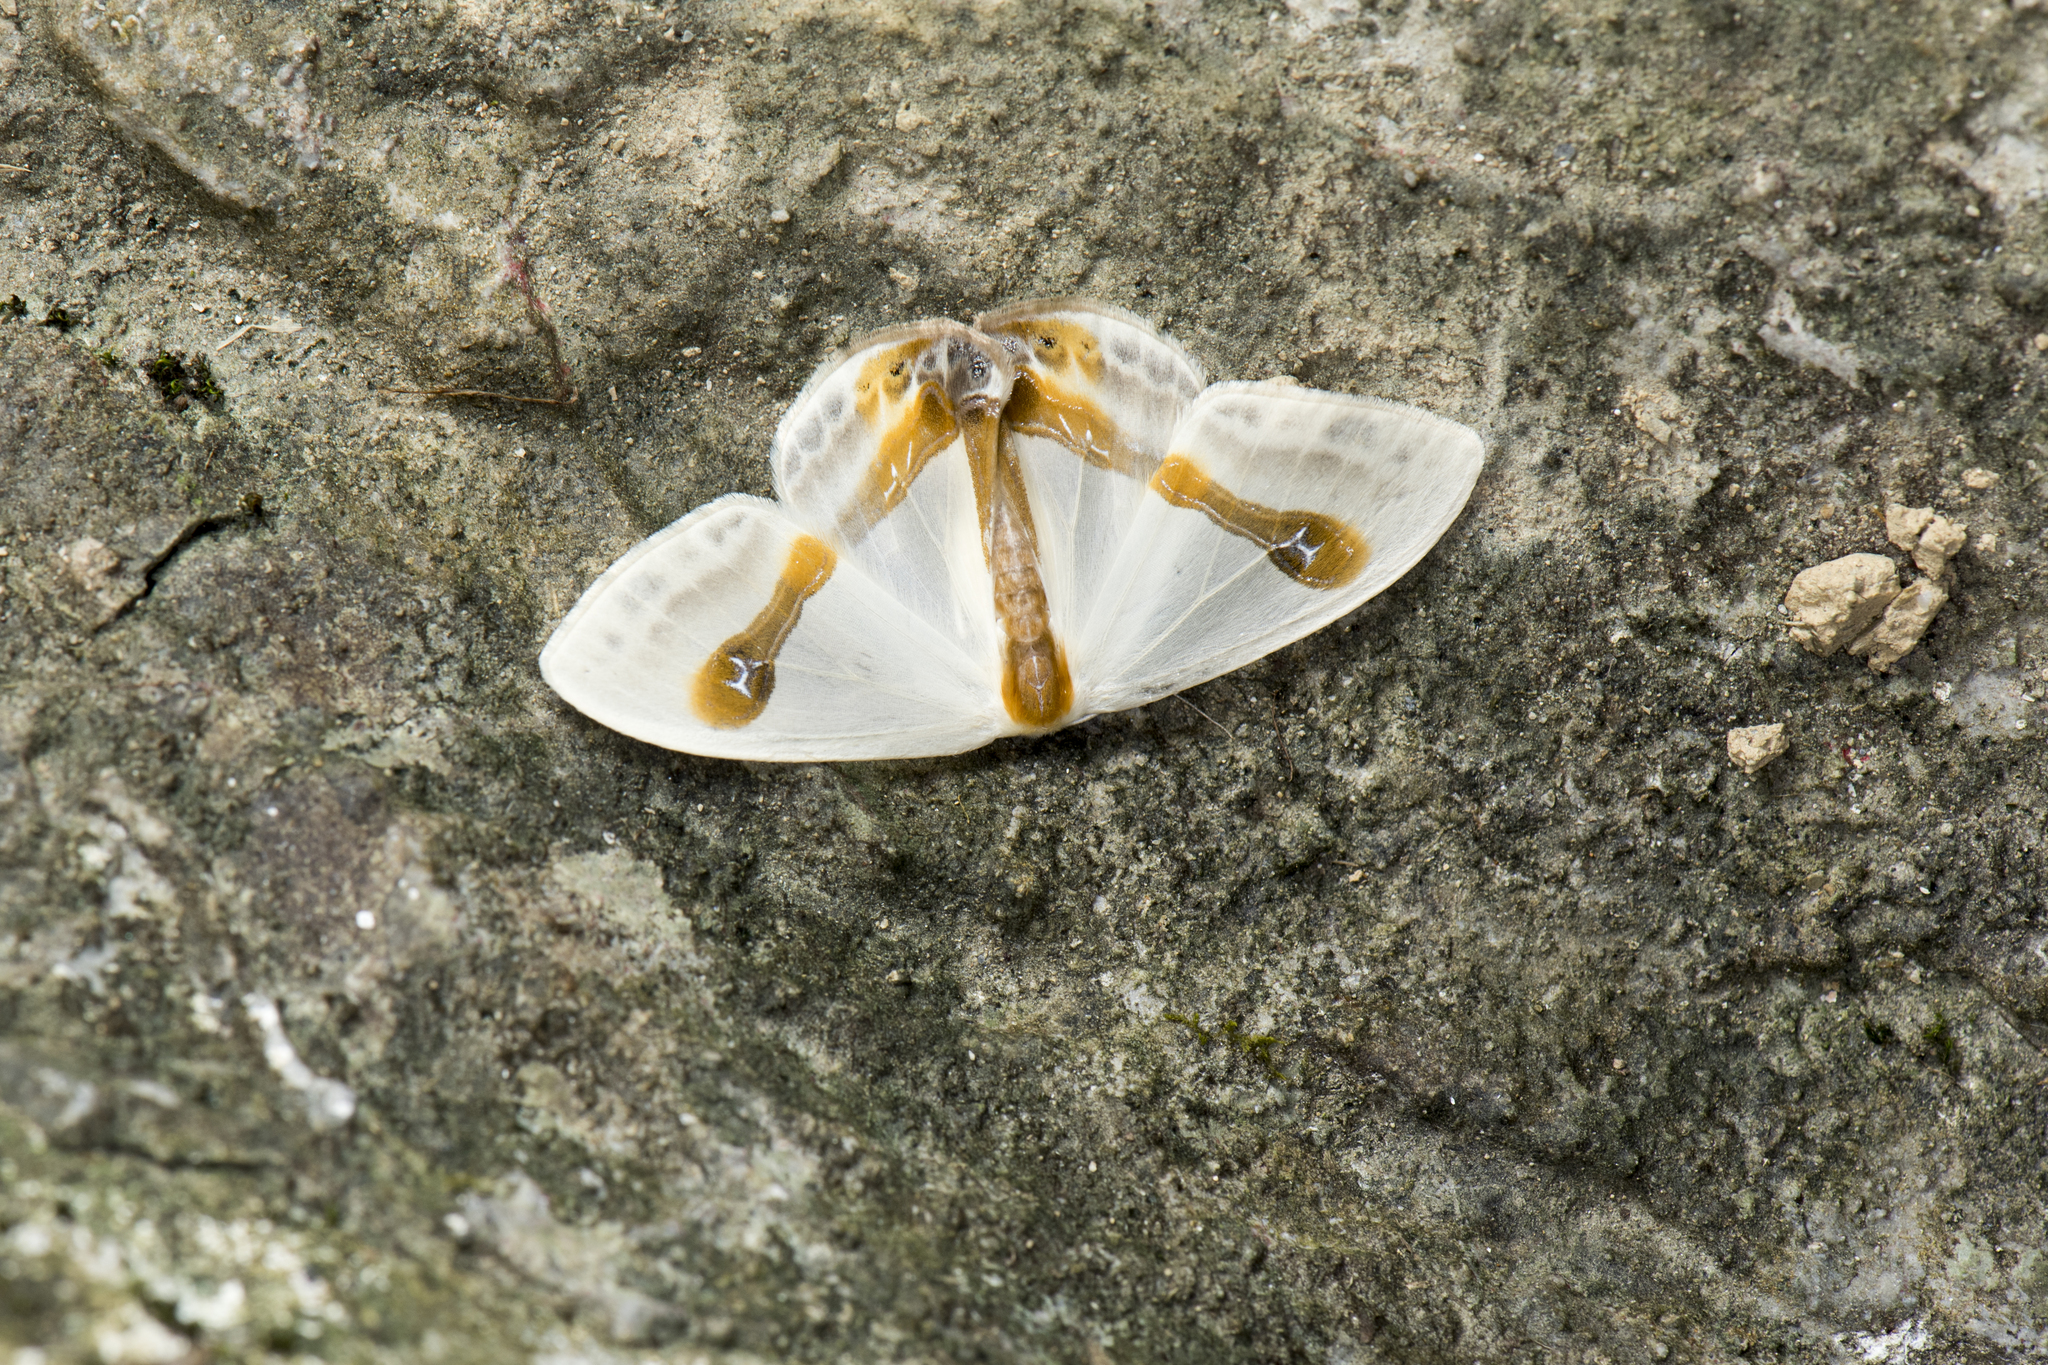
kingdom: Animalia
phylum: Arthropoda
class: Insecta
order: Lepidoptera
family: Drepanidae
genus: Macrocilix
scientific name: Macrocilix mysticata
